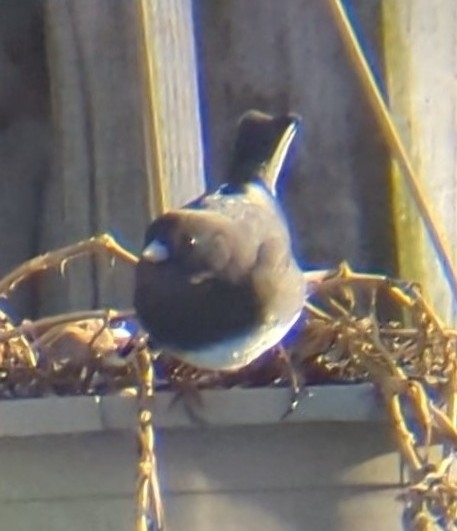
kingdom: Animalia
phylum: Chordata
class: Aves
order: Passeriformes
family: Passerellidae
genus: Junco
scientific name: Junco hyemalis
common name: Dark-eyed junco
